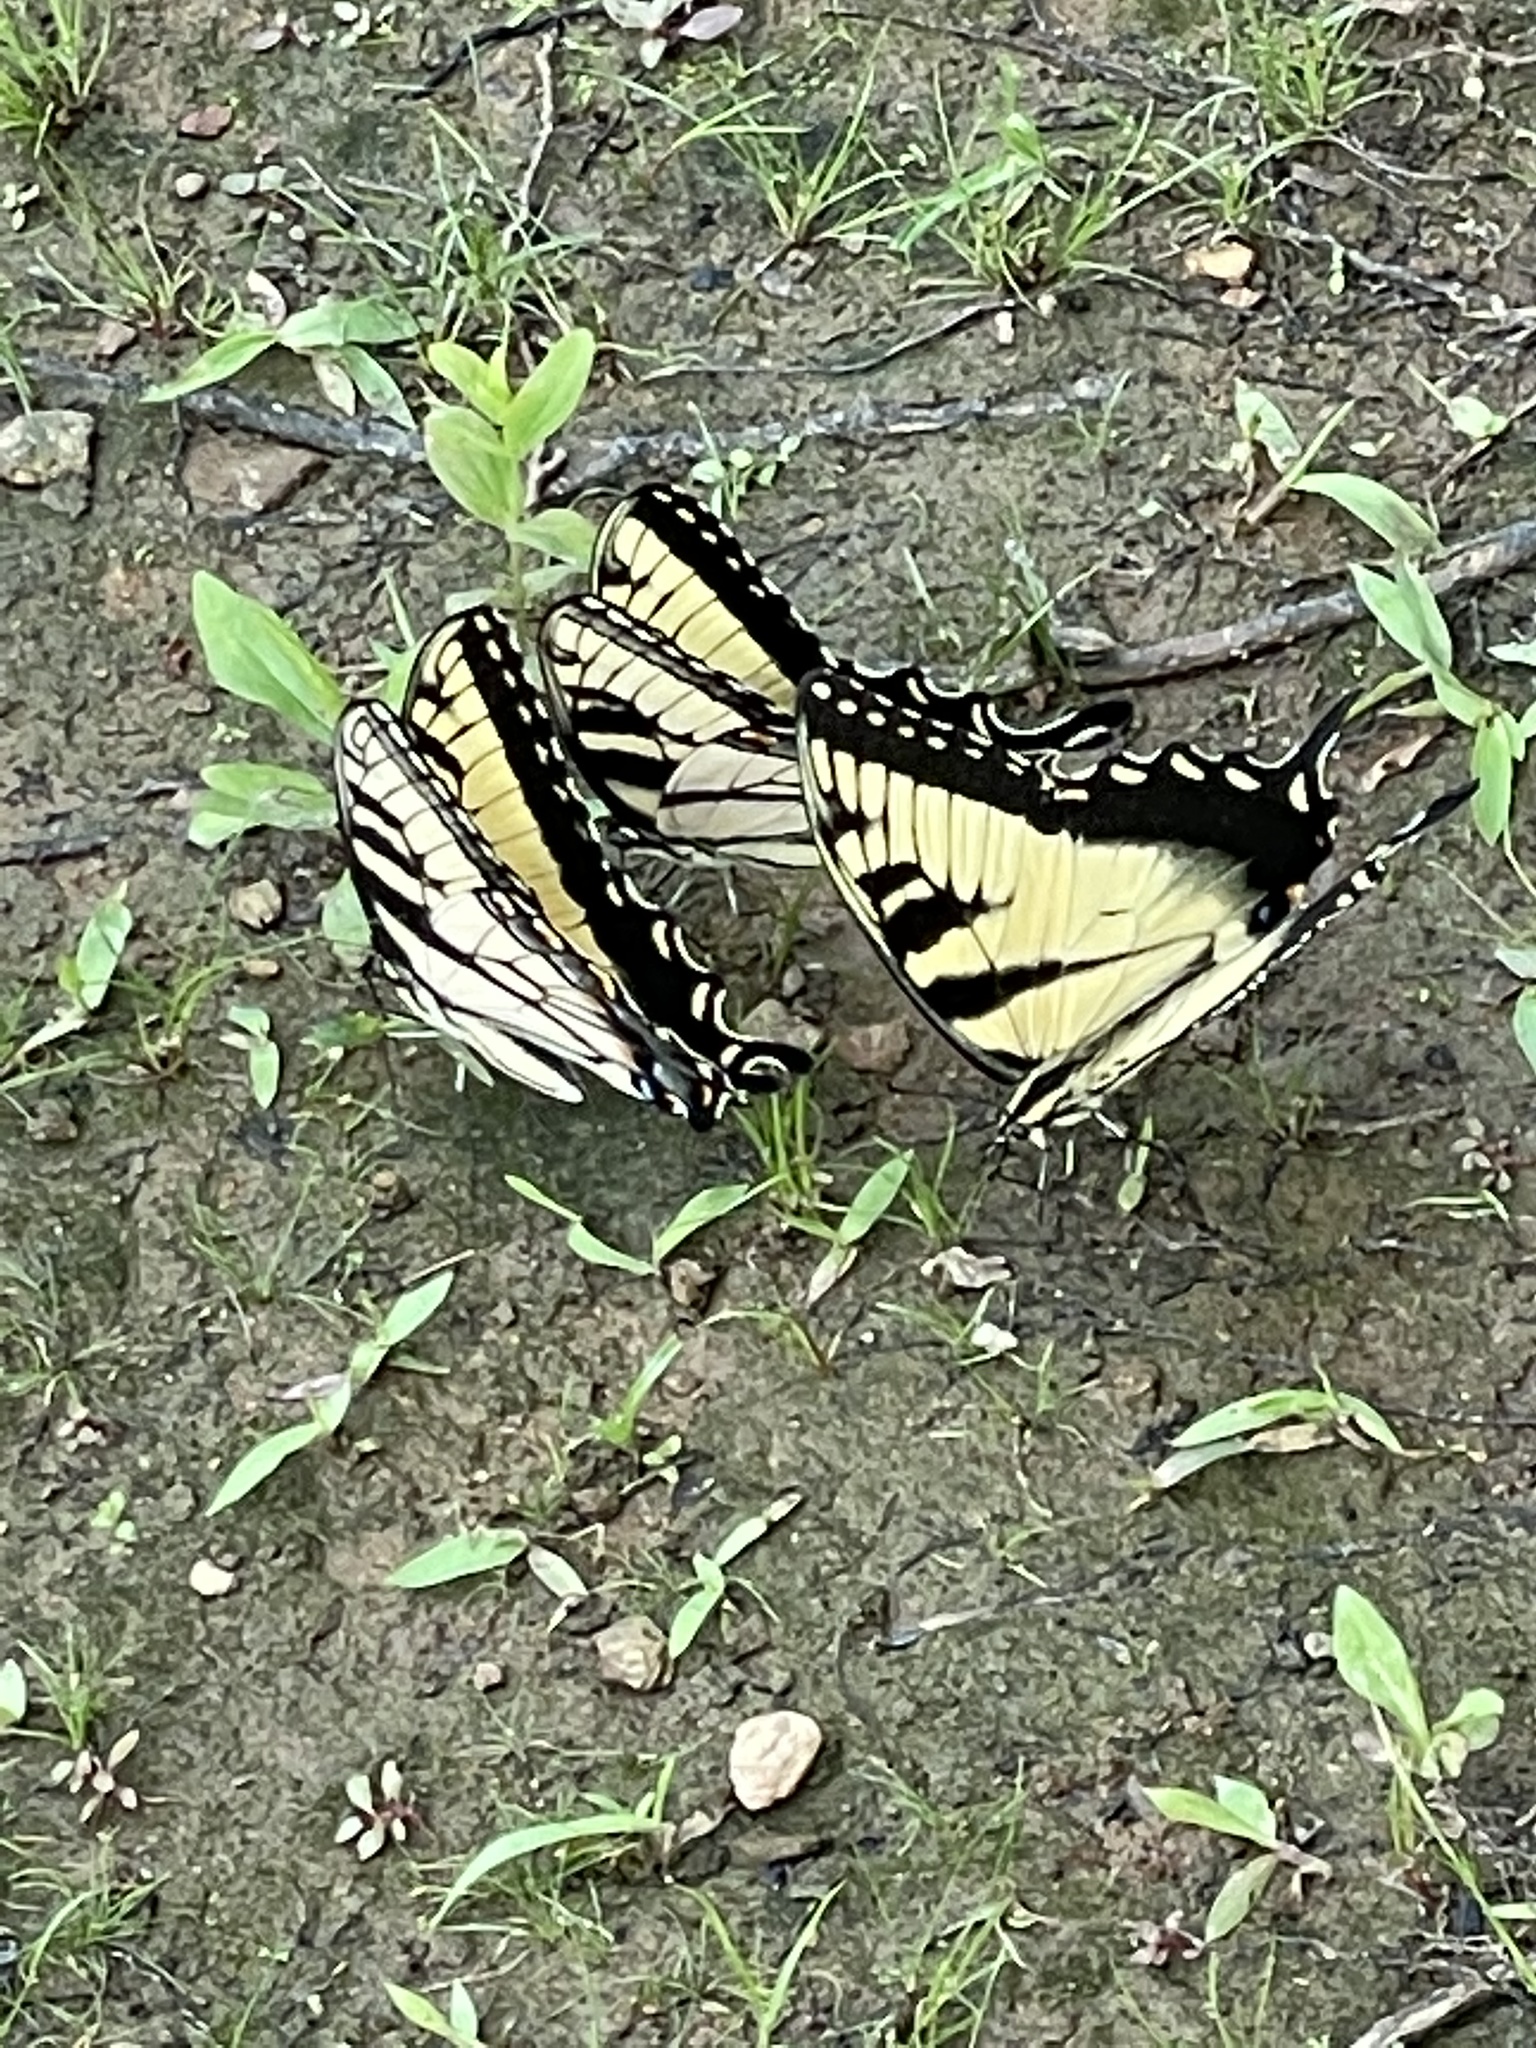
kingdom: Animalia
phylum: Arthropoda
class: Insecta
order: Lepidoptera
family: Papilionidae
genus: Papilio
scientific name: Papilio glaucus
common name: Tiger swallowtail
